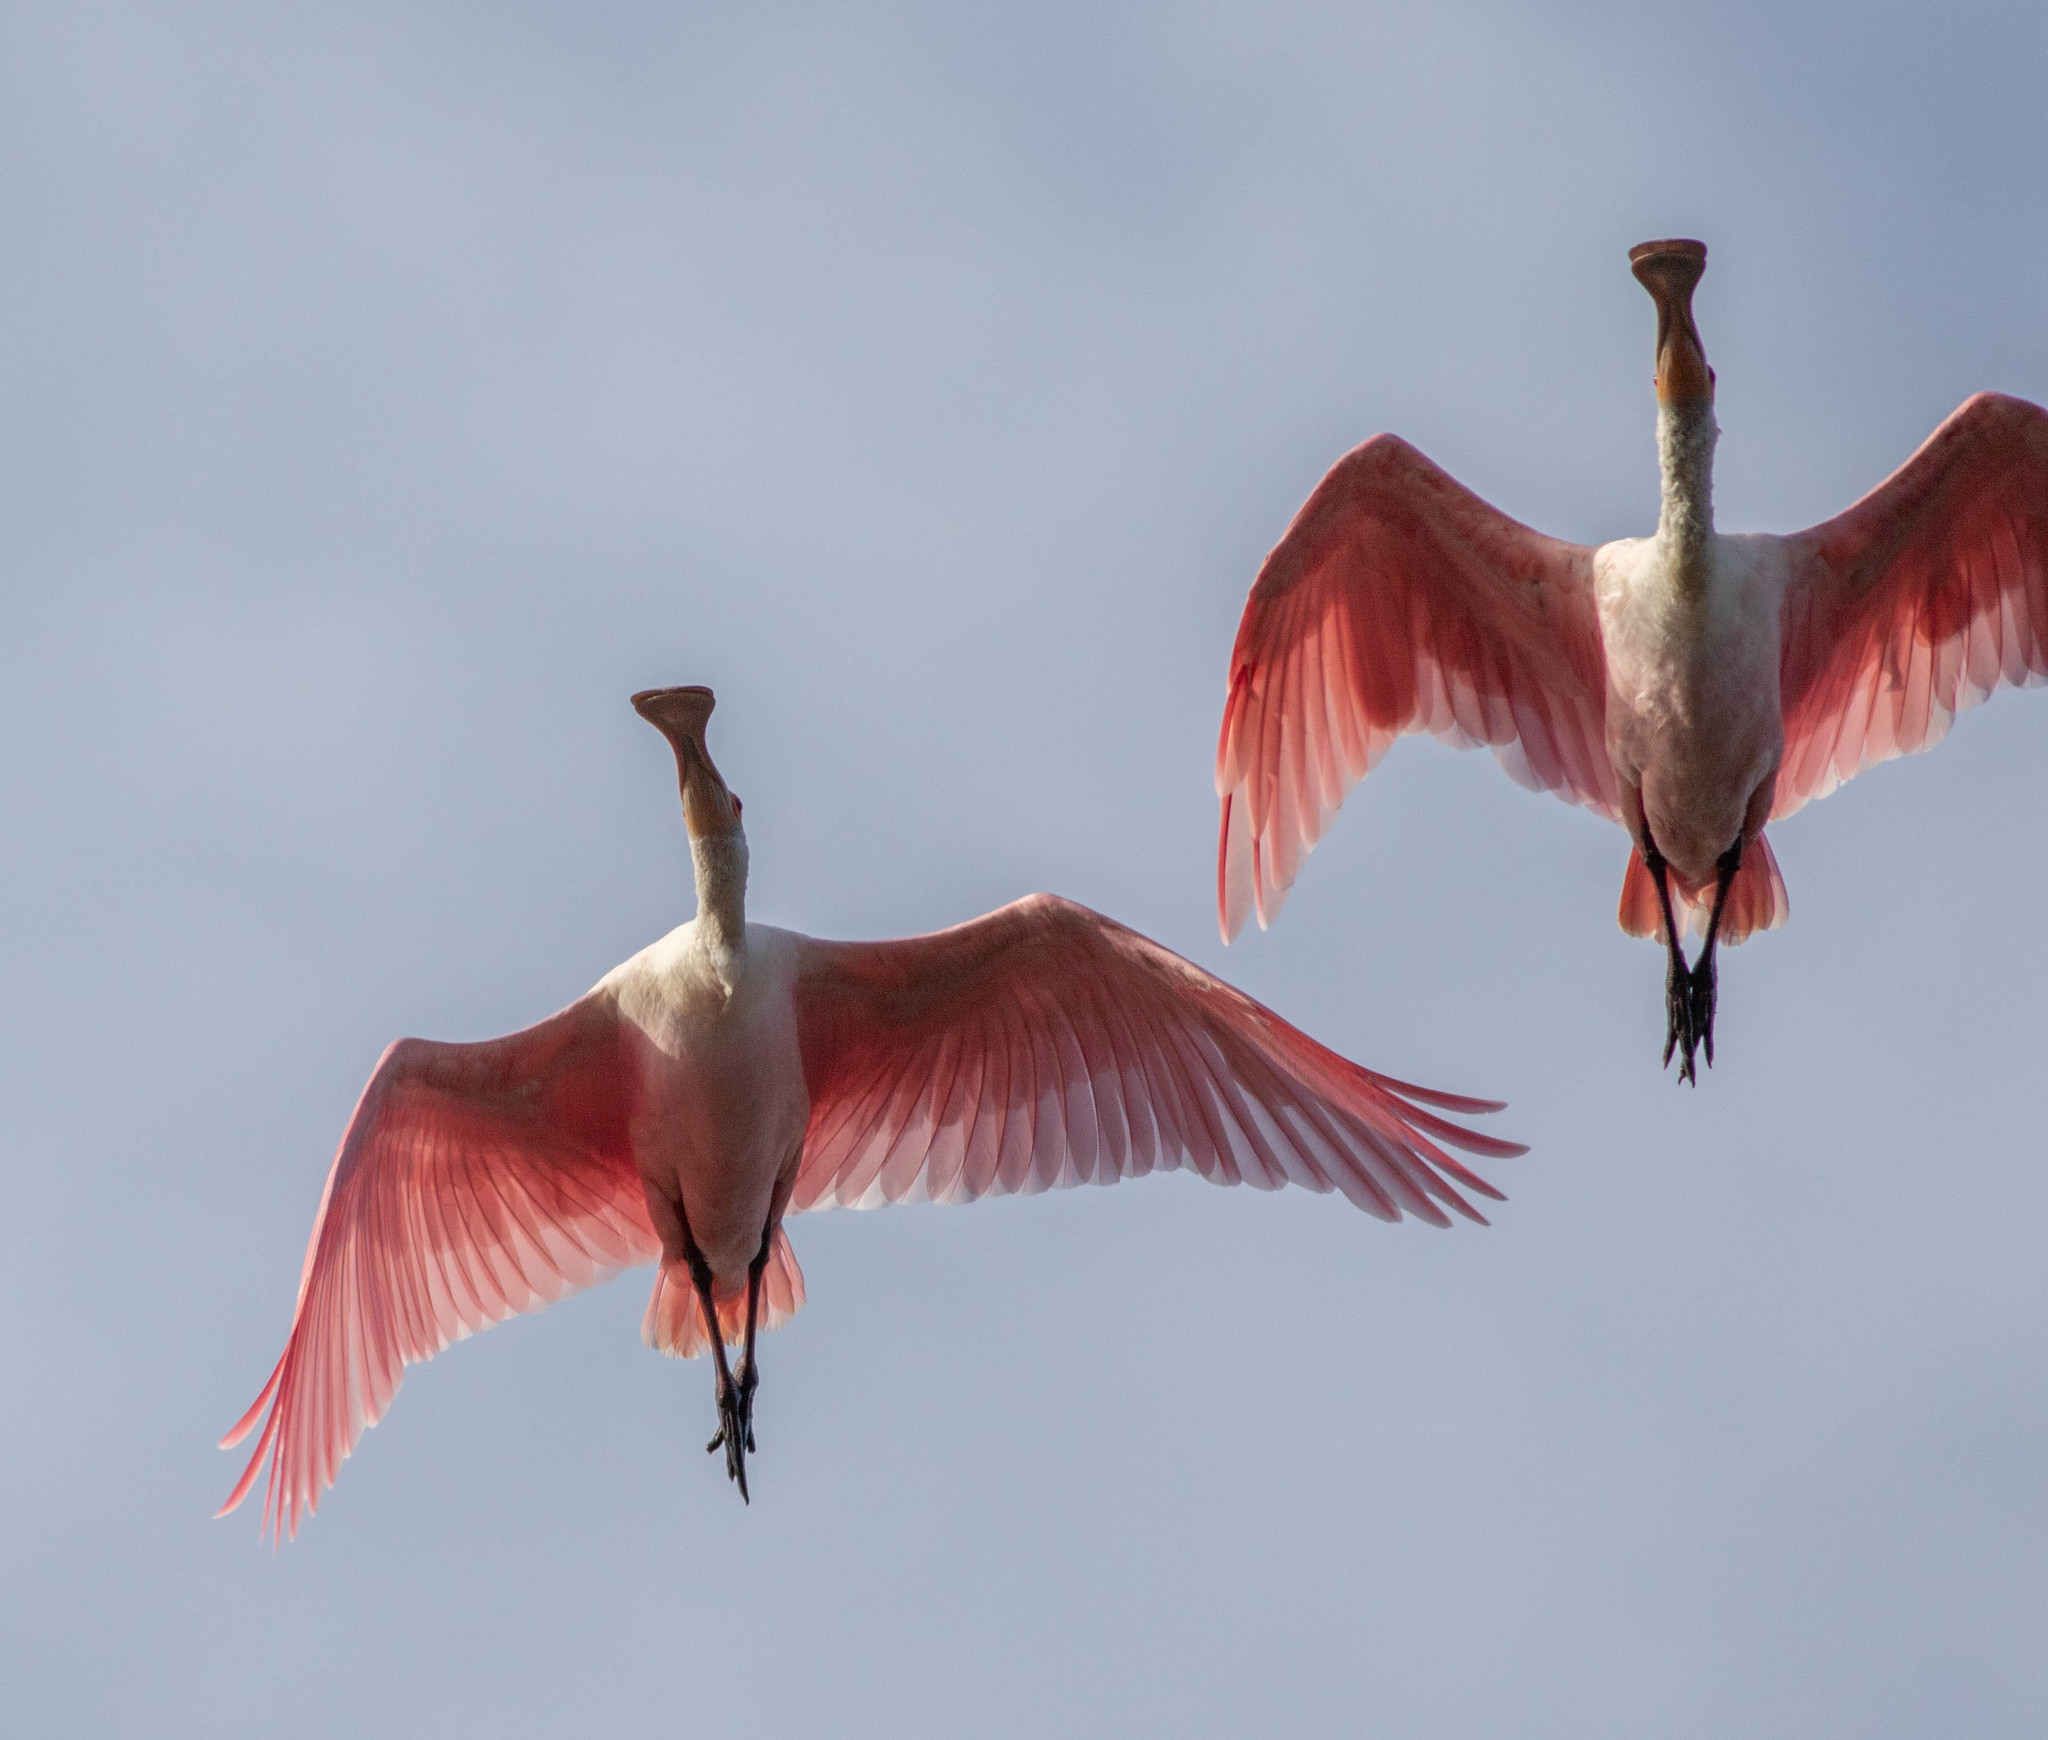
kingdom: Animalia
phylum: Chordata
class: Aves
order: Pelecaniformes
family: Threskiornithidae
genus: Platalea
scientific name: Platalea ajaja
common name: Roseate spoonbill
